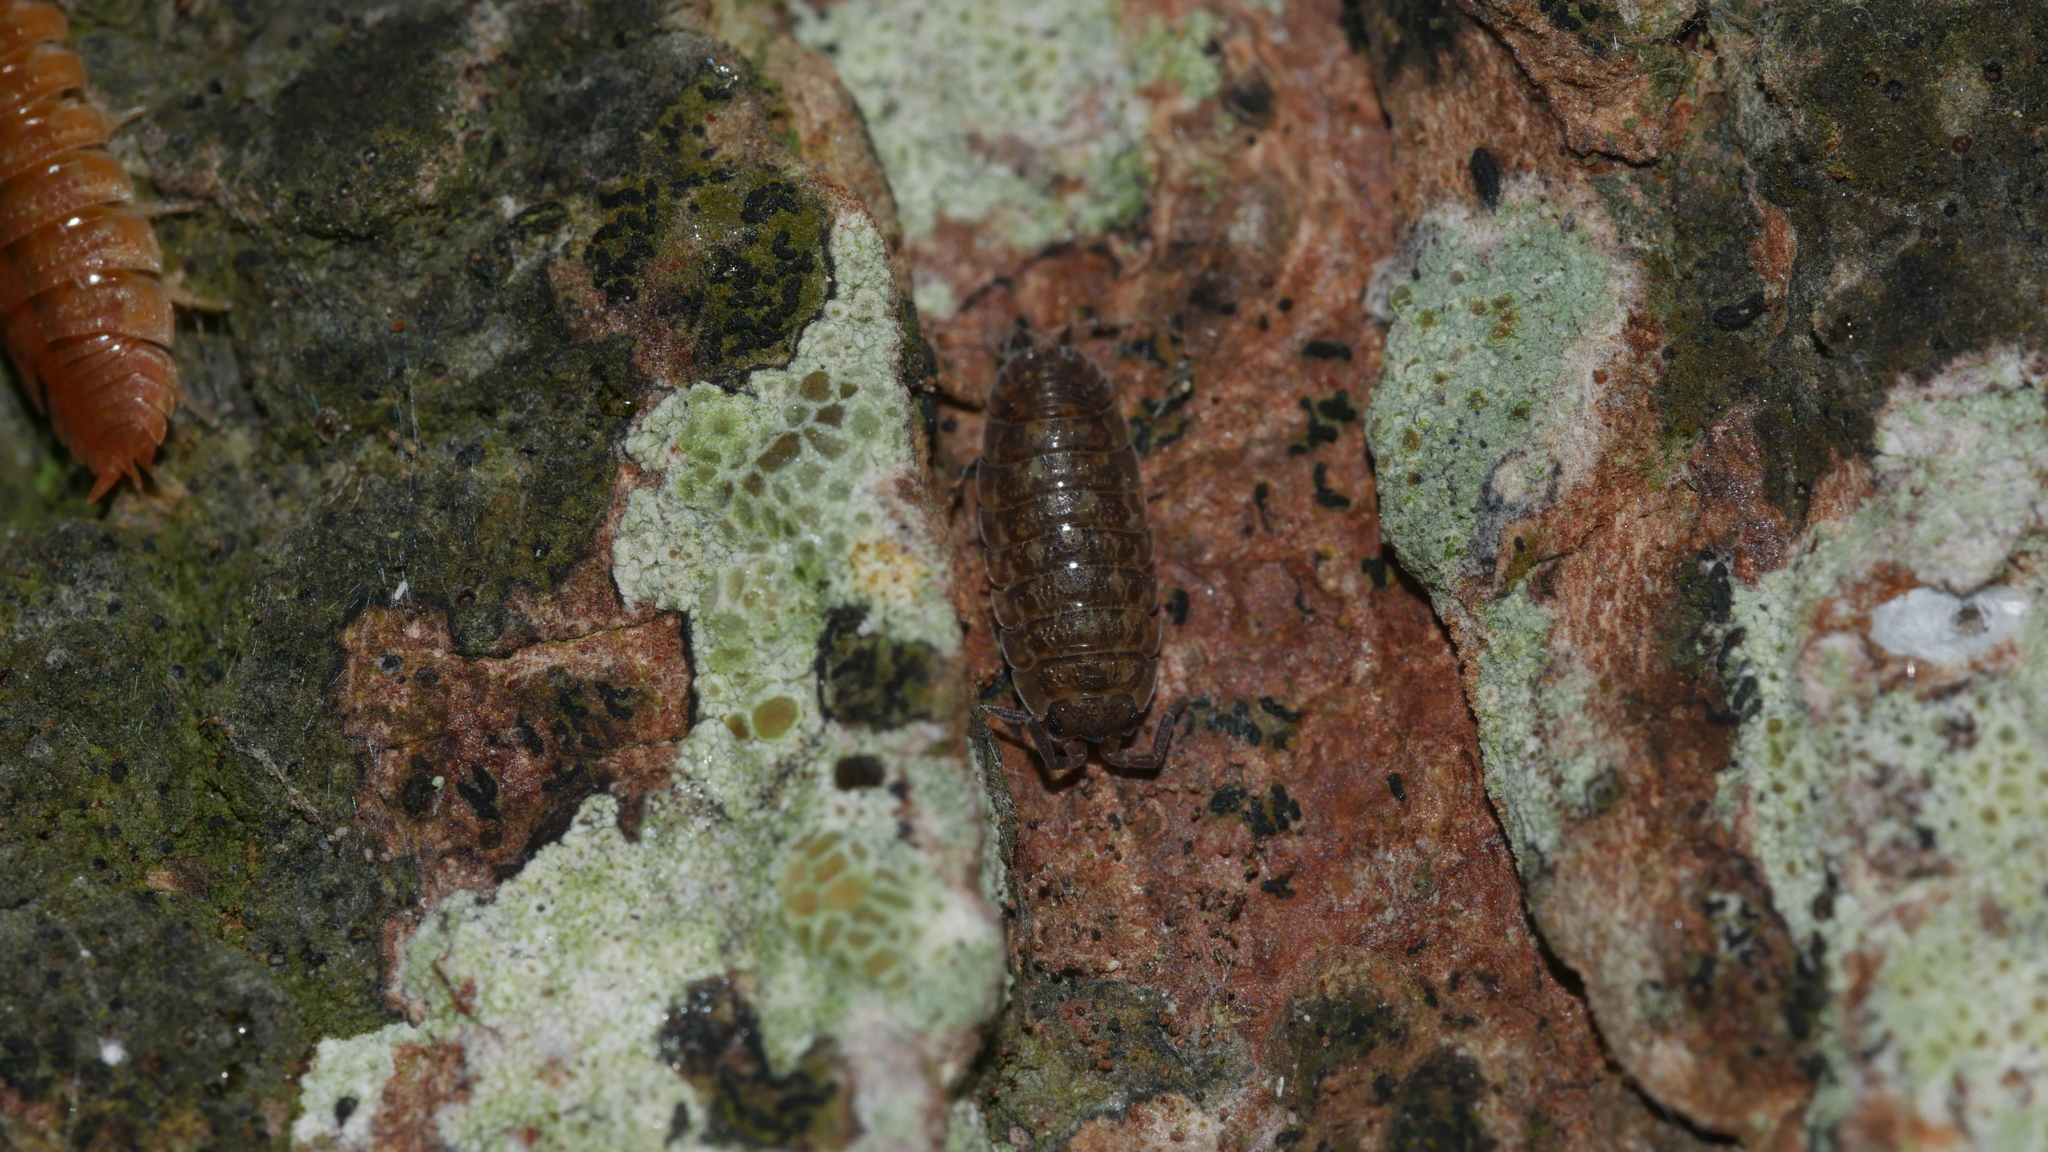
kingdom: Animalia
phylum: Arthropoda
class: Malacostraca
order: Isopoda
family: Porcellionidae
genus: Porcellio
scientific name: Porcellio scaber
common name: Common rough woodlouse
